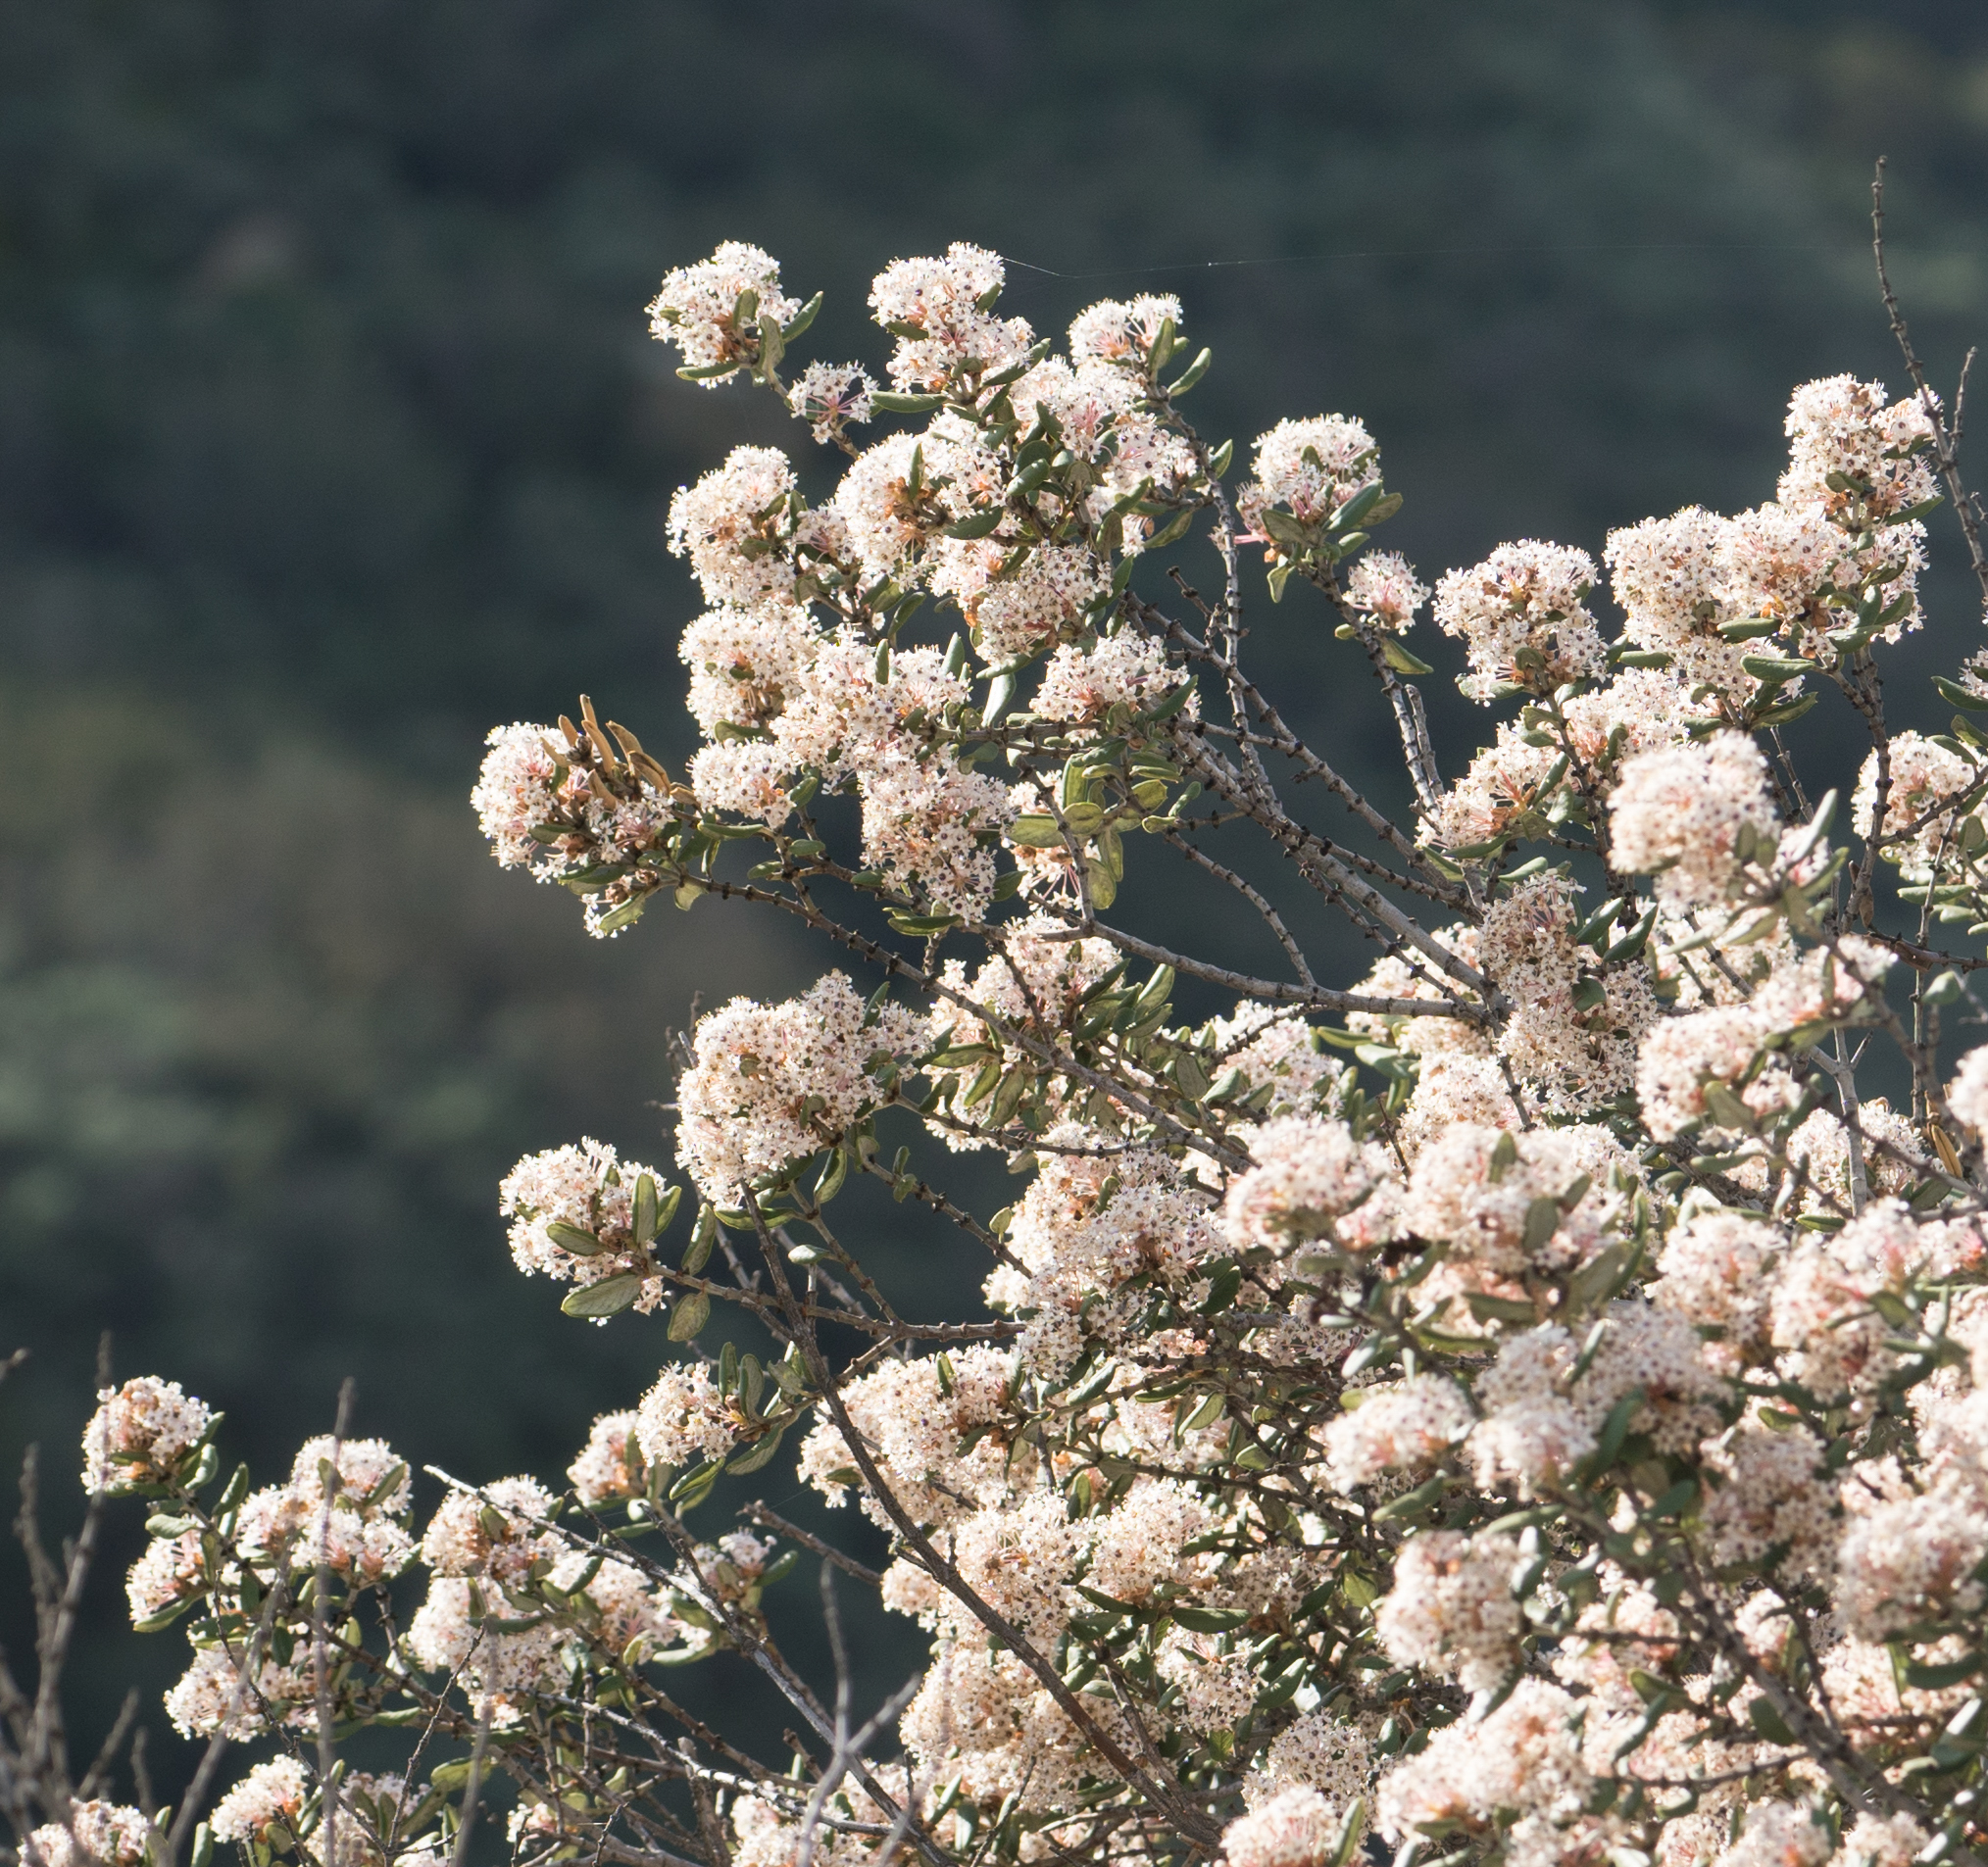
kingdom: Plantae
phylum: Tracheophyta
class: Magnoliopsida
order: Rosales
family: Rhamnaceae
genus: Ceanothus
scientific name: Ceanothus crassifolius
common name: Hoaryleaf ceanothus
